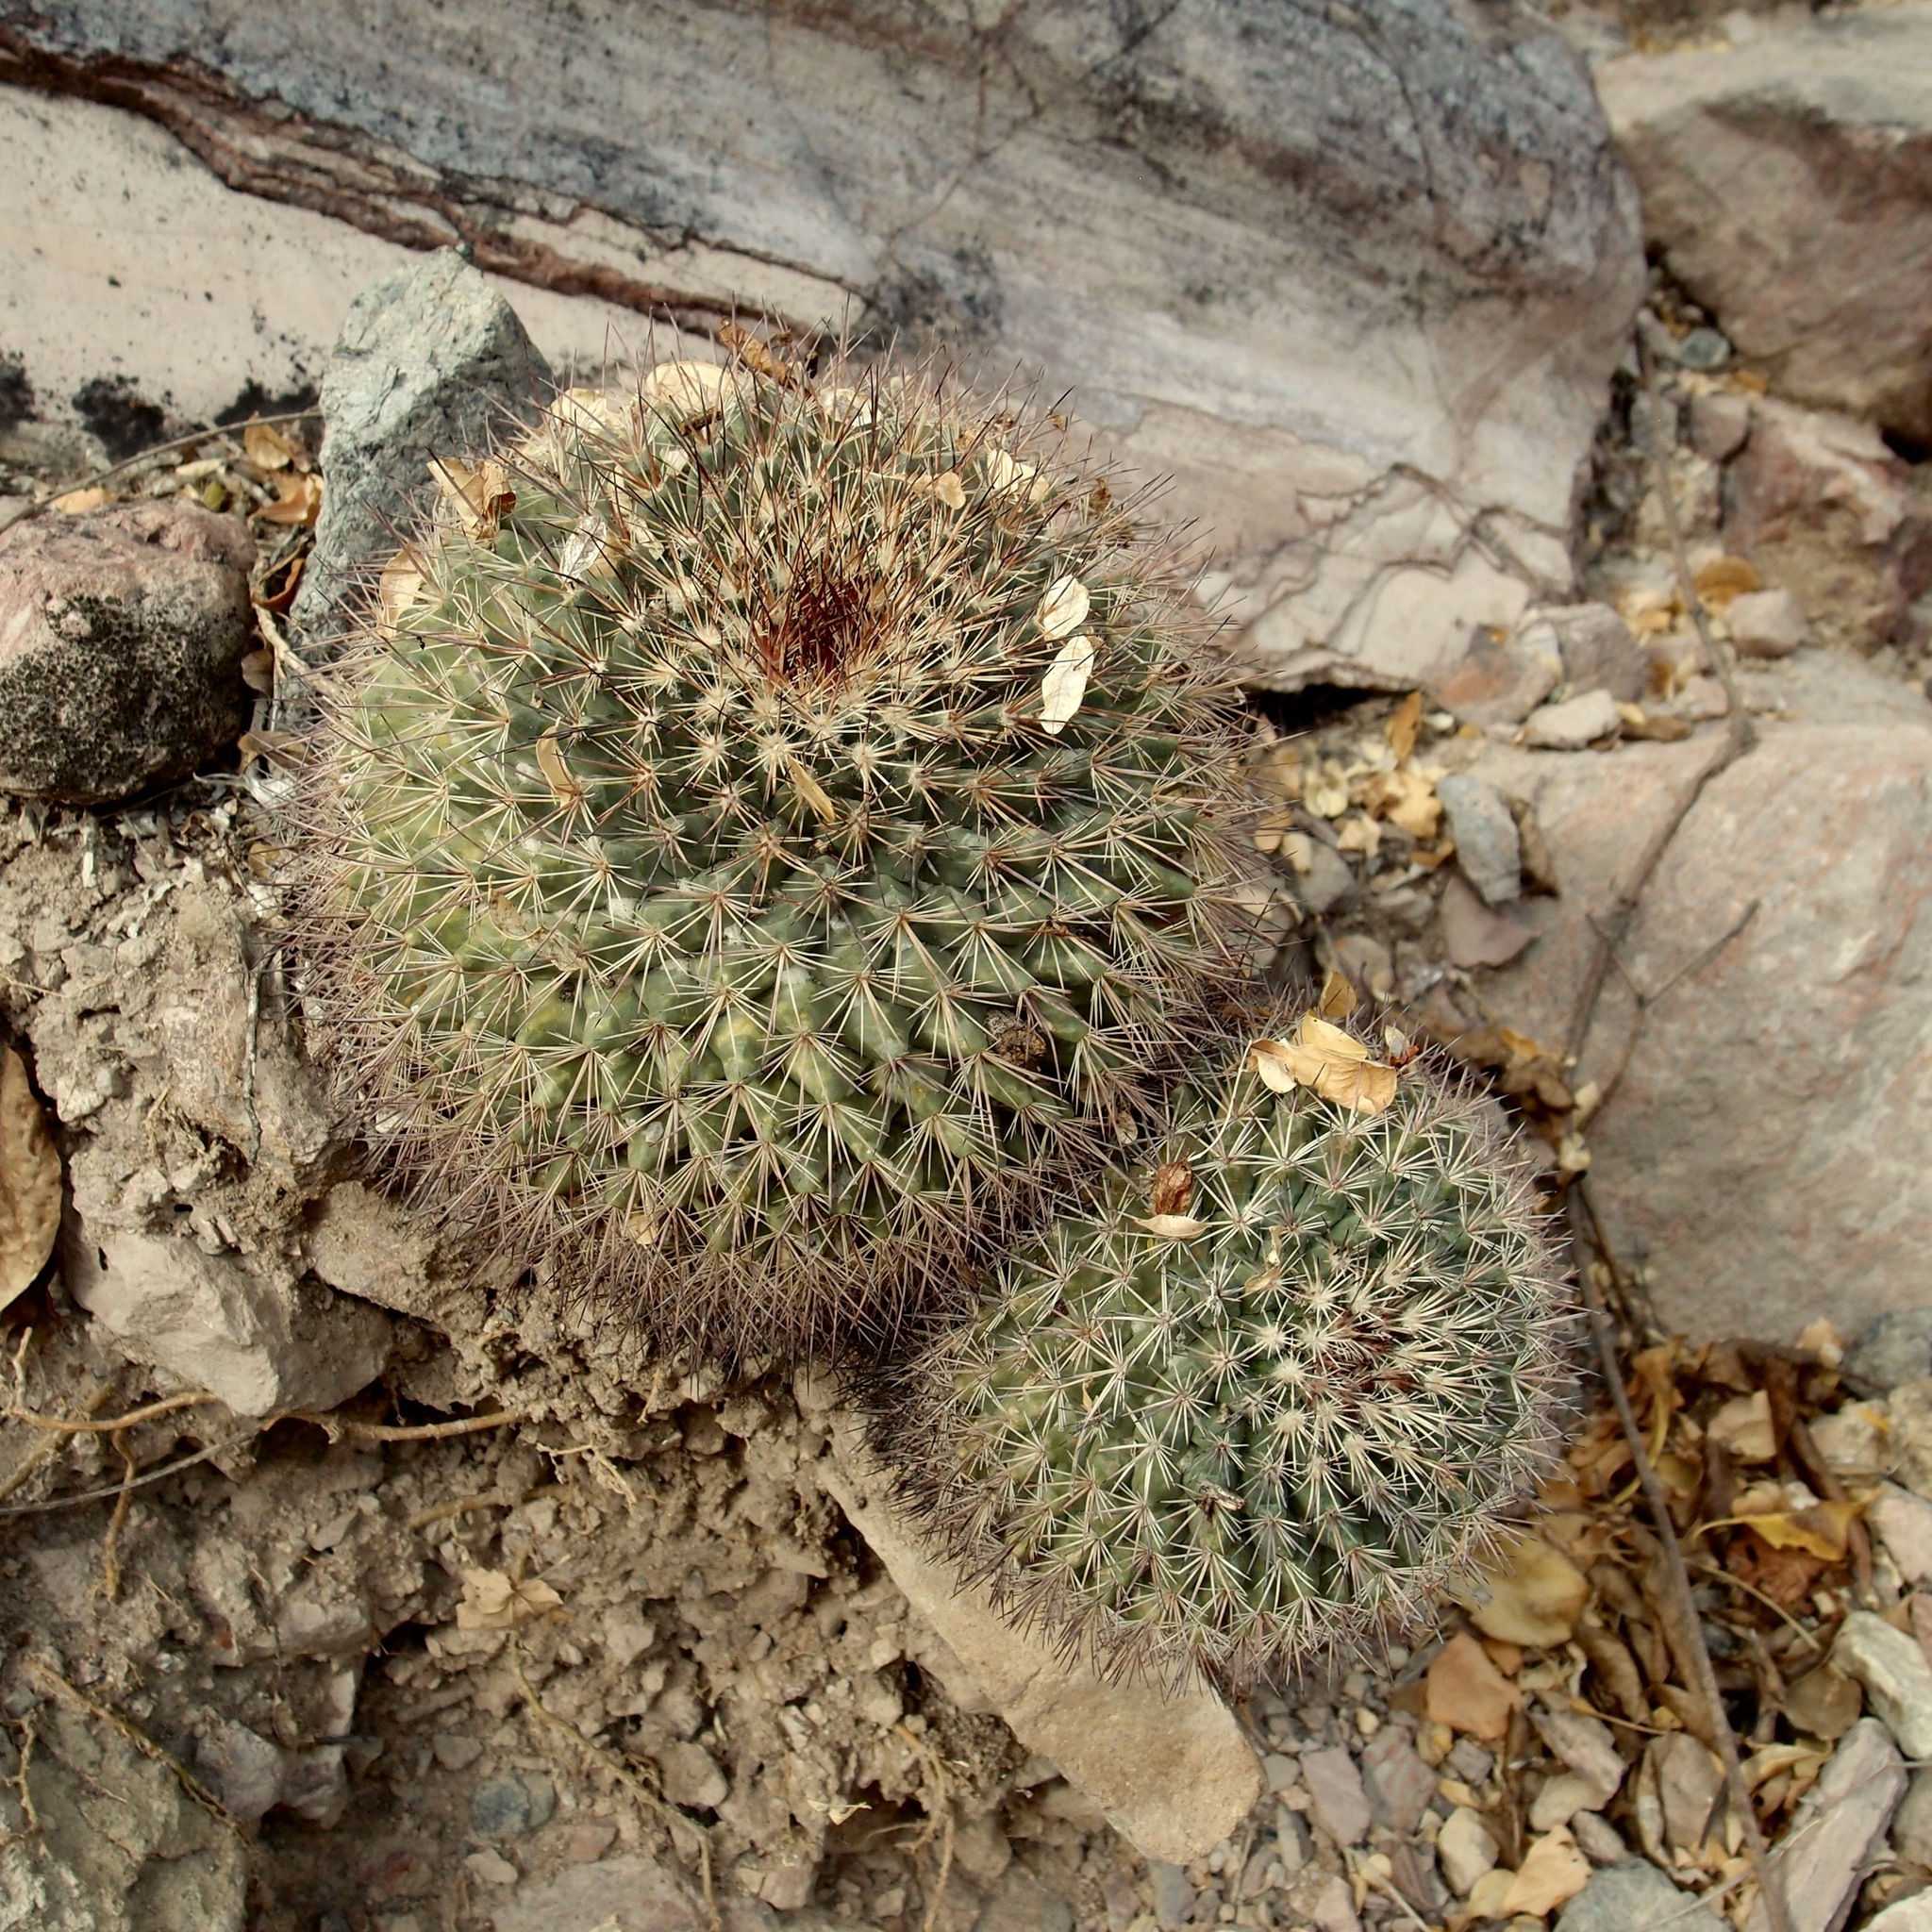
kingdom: Plantae
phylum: Tracheophyta
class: Magnoliopsida
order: Caryophyllales
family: Cactaceae
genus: Mammillaria
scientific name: Mammillaria johnstonii
